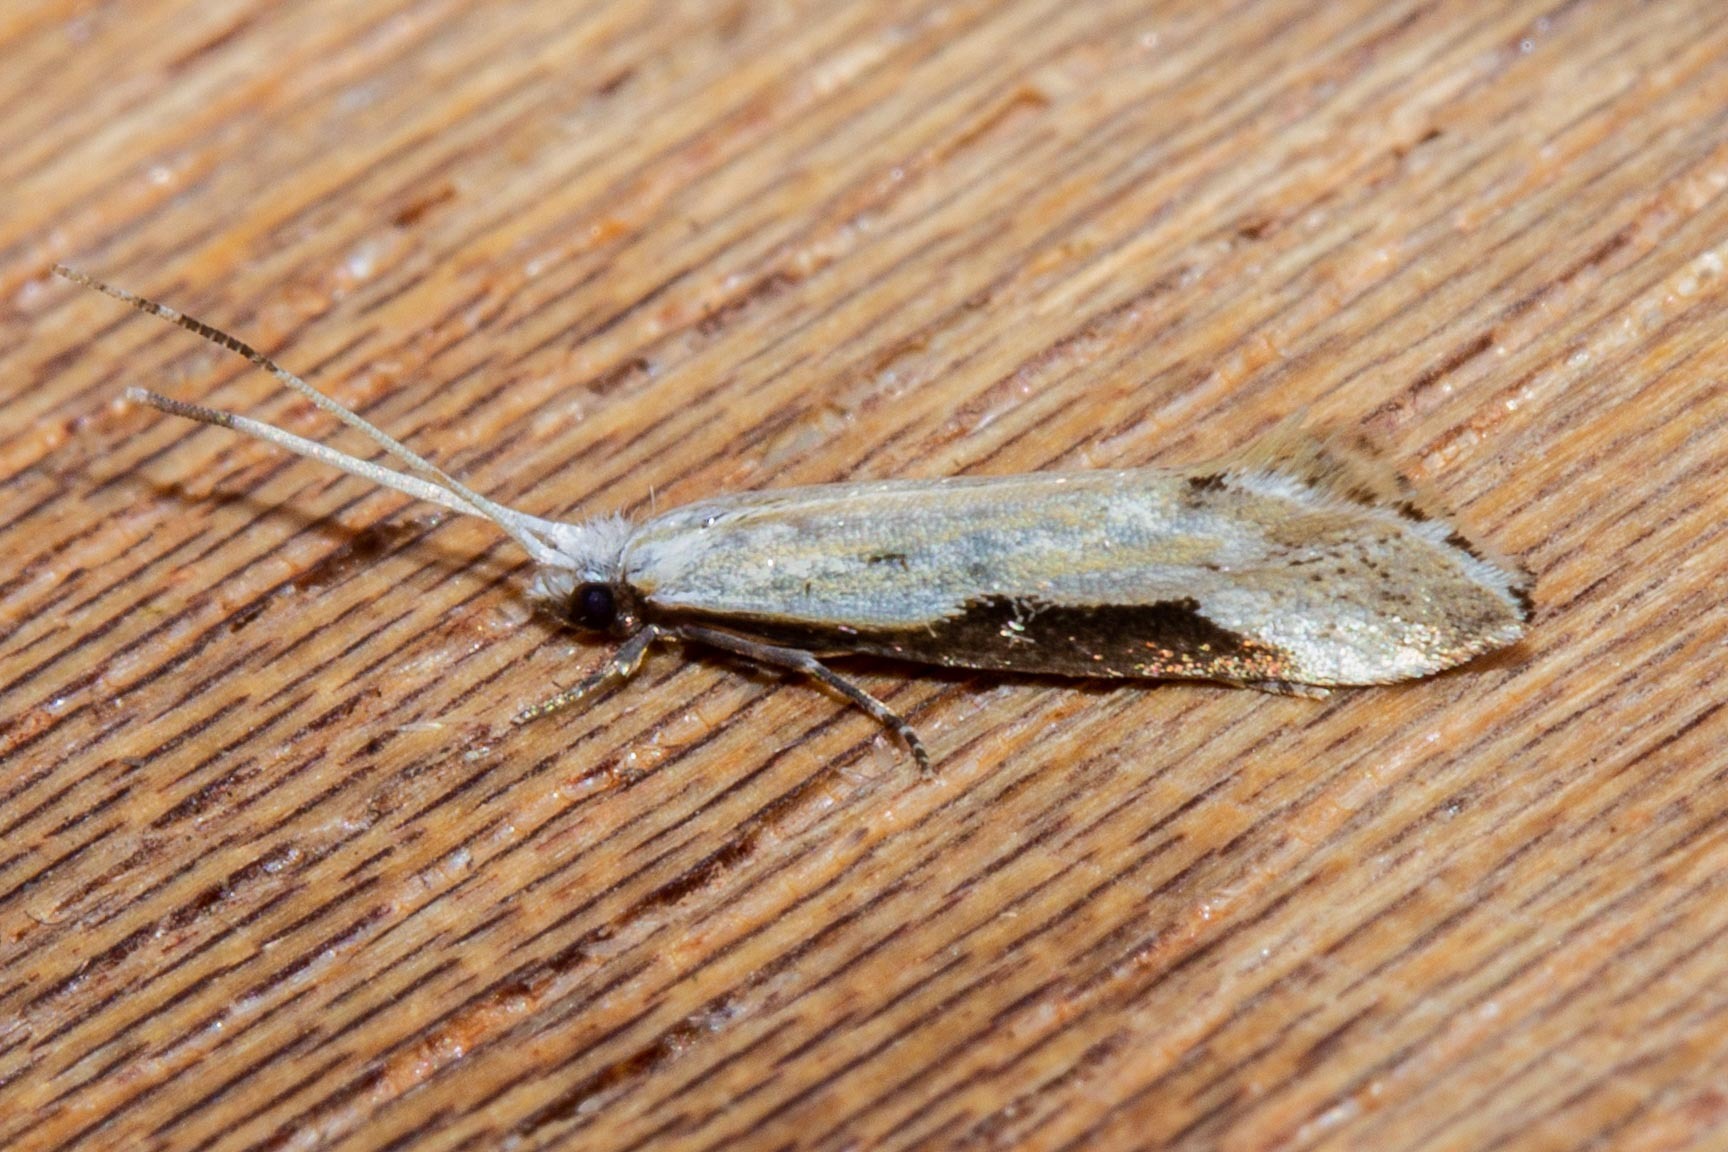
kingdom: Animalia
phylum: Arthropoda
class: Insecta
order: Lepidoptera
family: Tineidae
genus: Sagephora
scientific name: Sagephora phortegella
